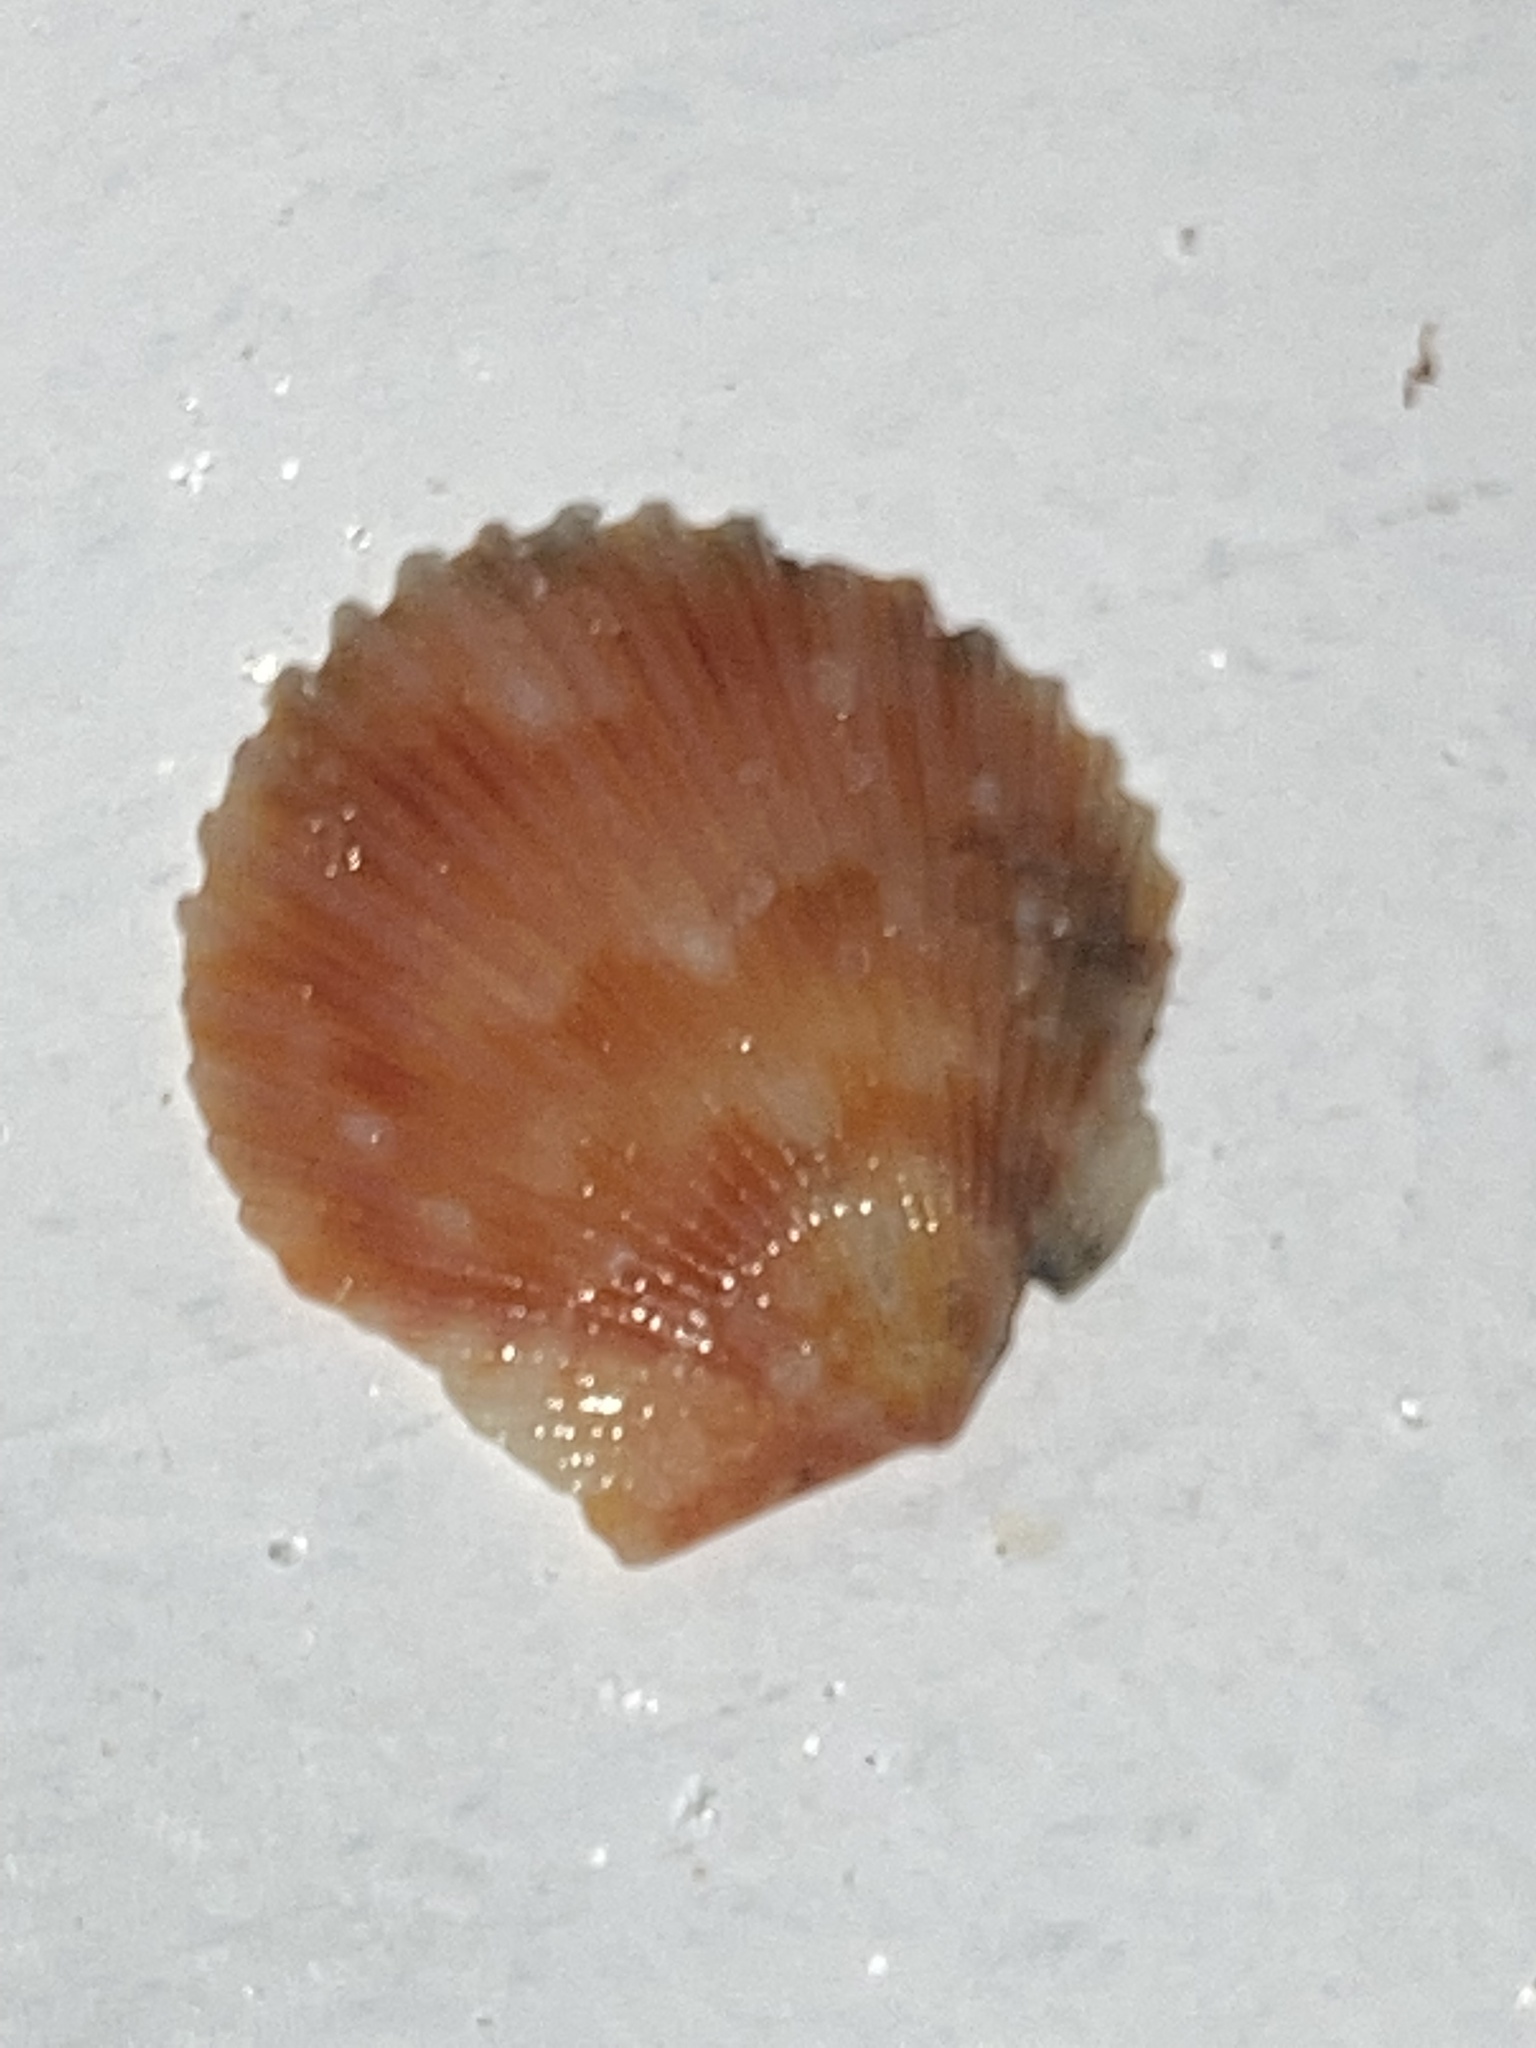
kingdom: Animalia
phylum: Mollusca
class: Bivalvia
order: Pectinida
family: Pectinidae
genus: Argopecten
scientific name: Argopecten gibbus
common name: Atlantic calico scallop
